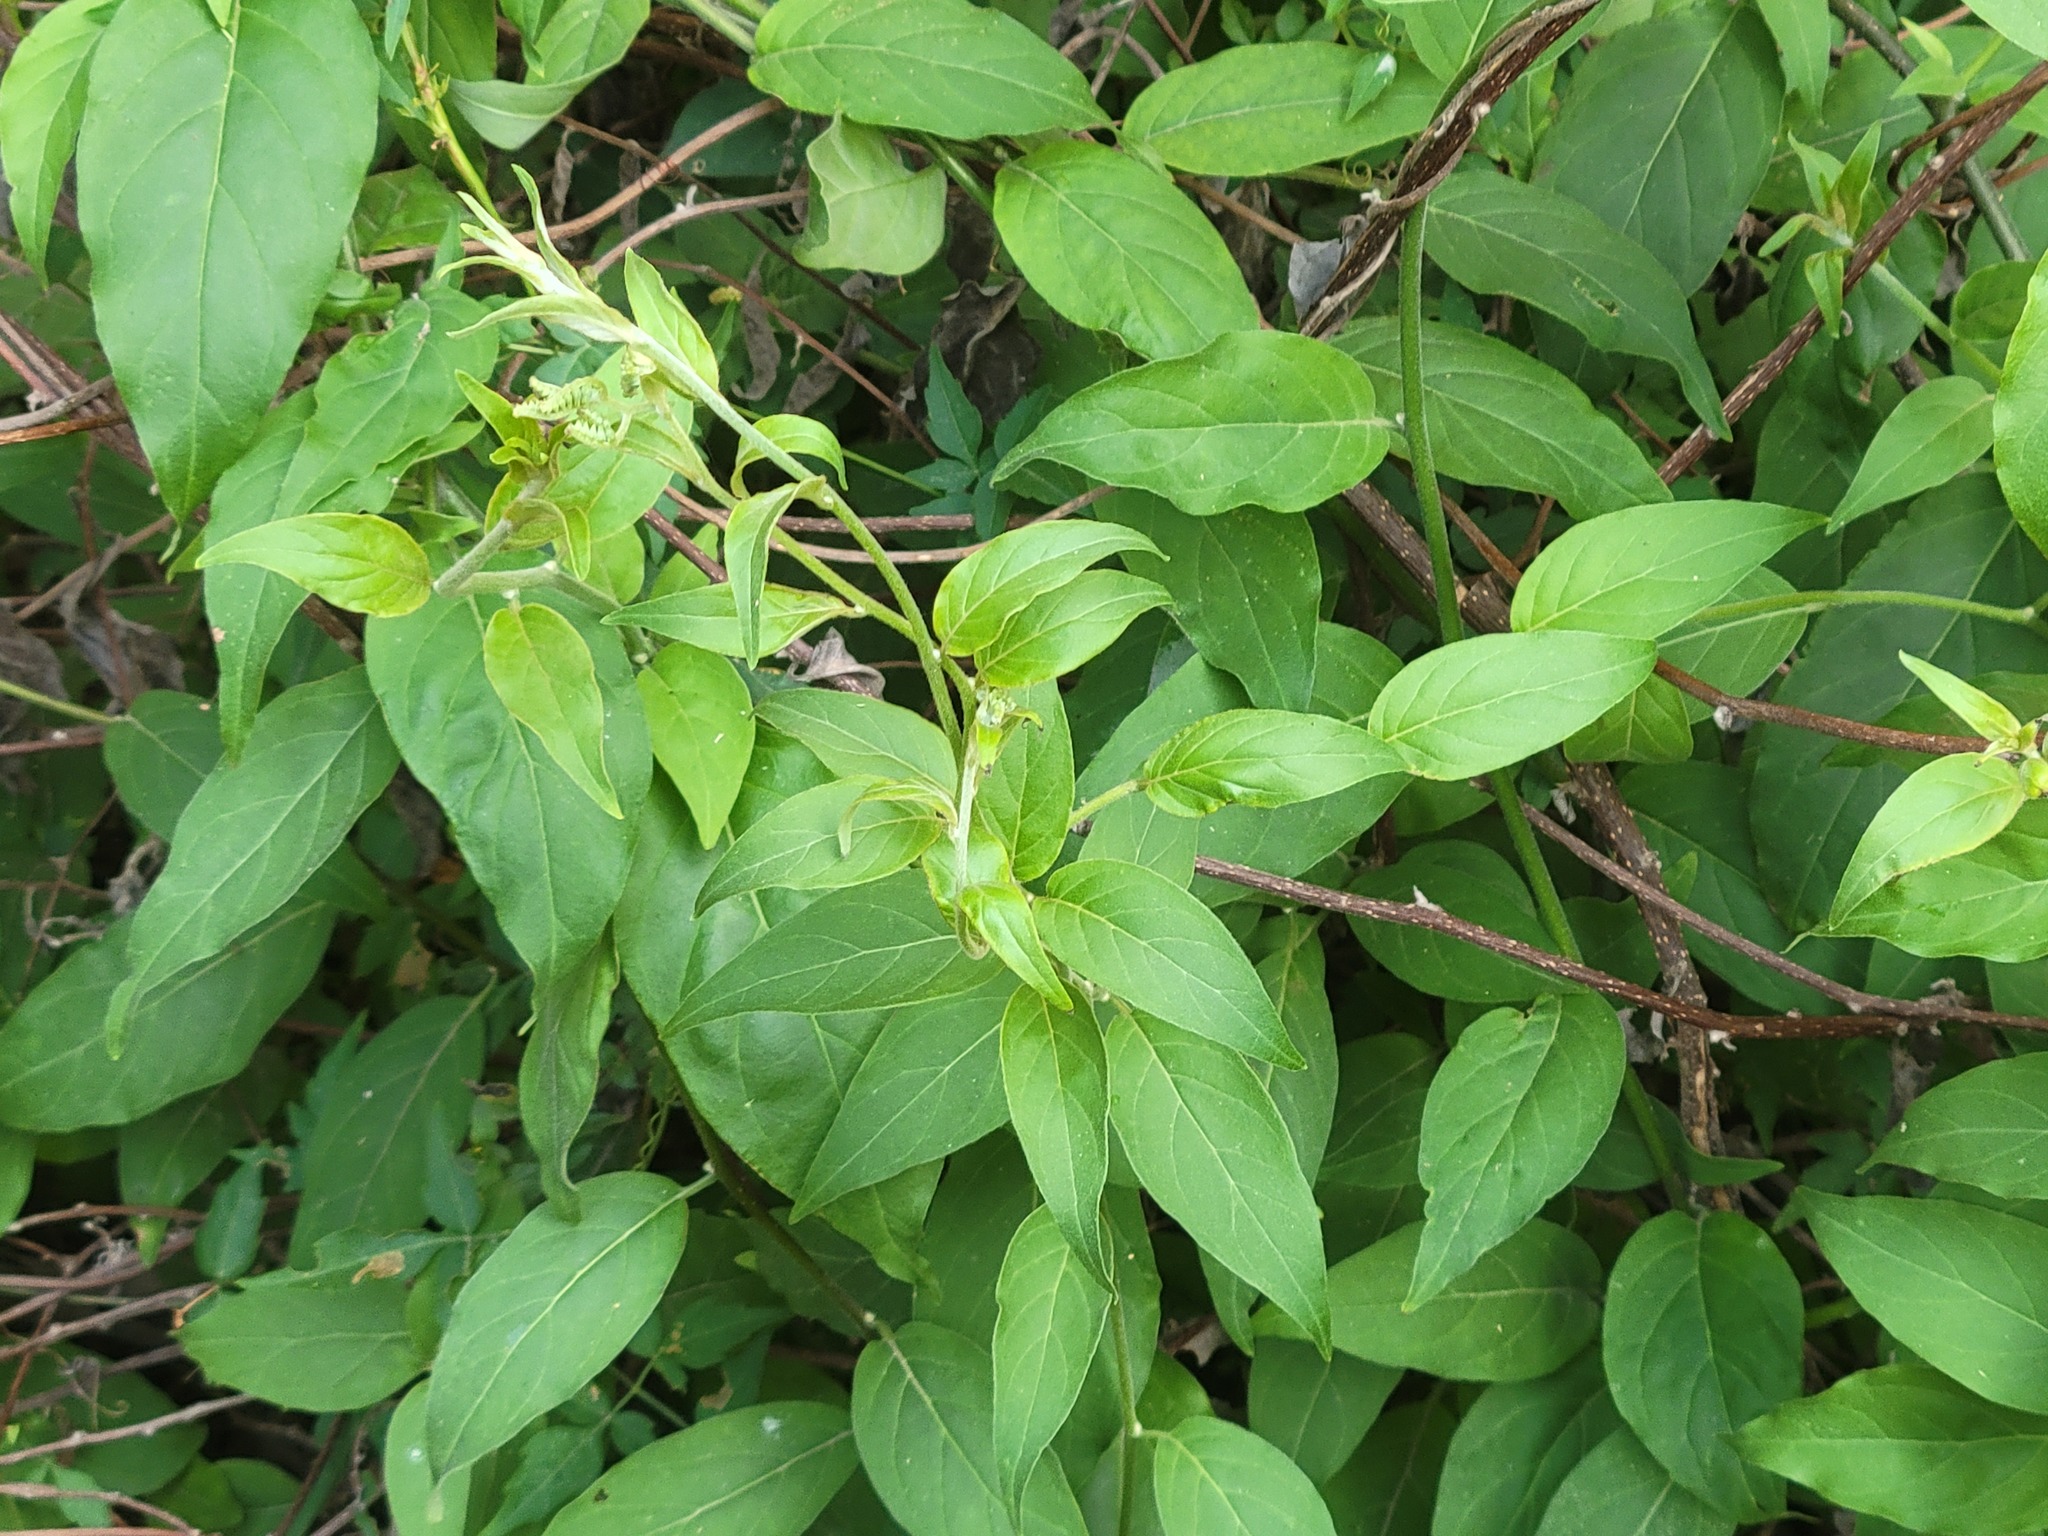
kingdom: Plantae
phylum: Tracheophyta
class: Magnoliopsida
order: Boraginales
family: Heliotropiaceae
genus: Myriopus
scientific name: Myriopus volubilis
